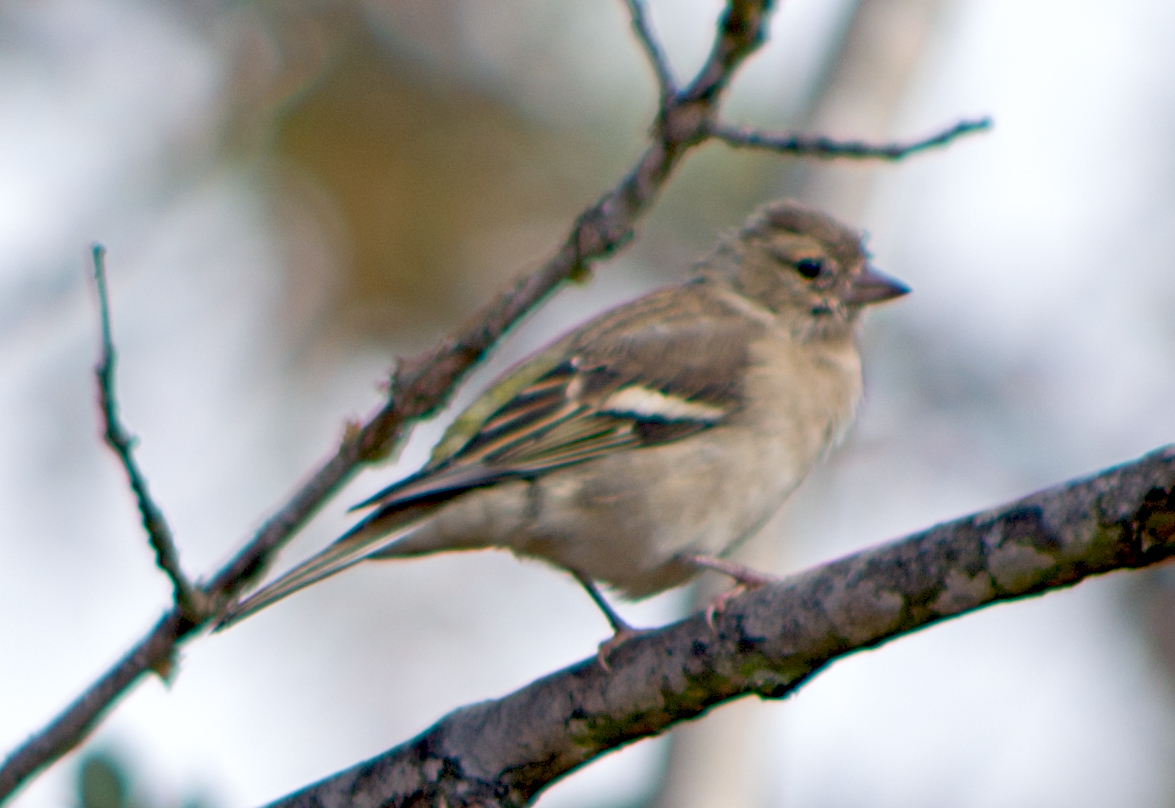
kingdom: Animalia
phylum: Chordata
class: Aves
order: Passeriformes
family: Fringillidae
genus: Fringilla
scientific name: Fringilla coelebs
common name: Common chaffinch
